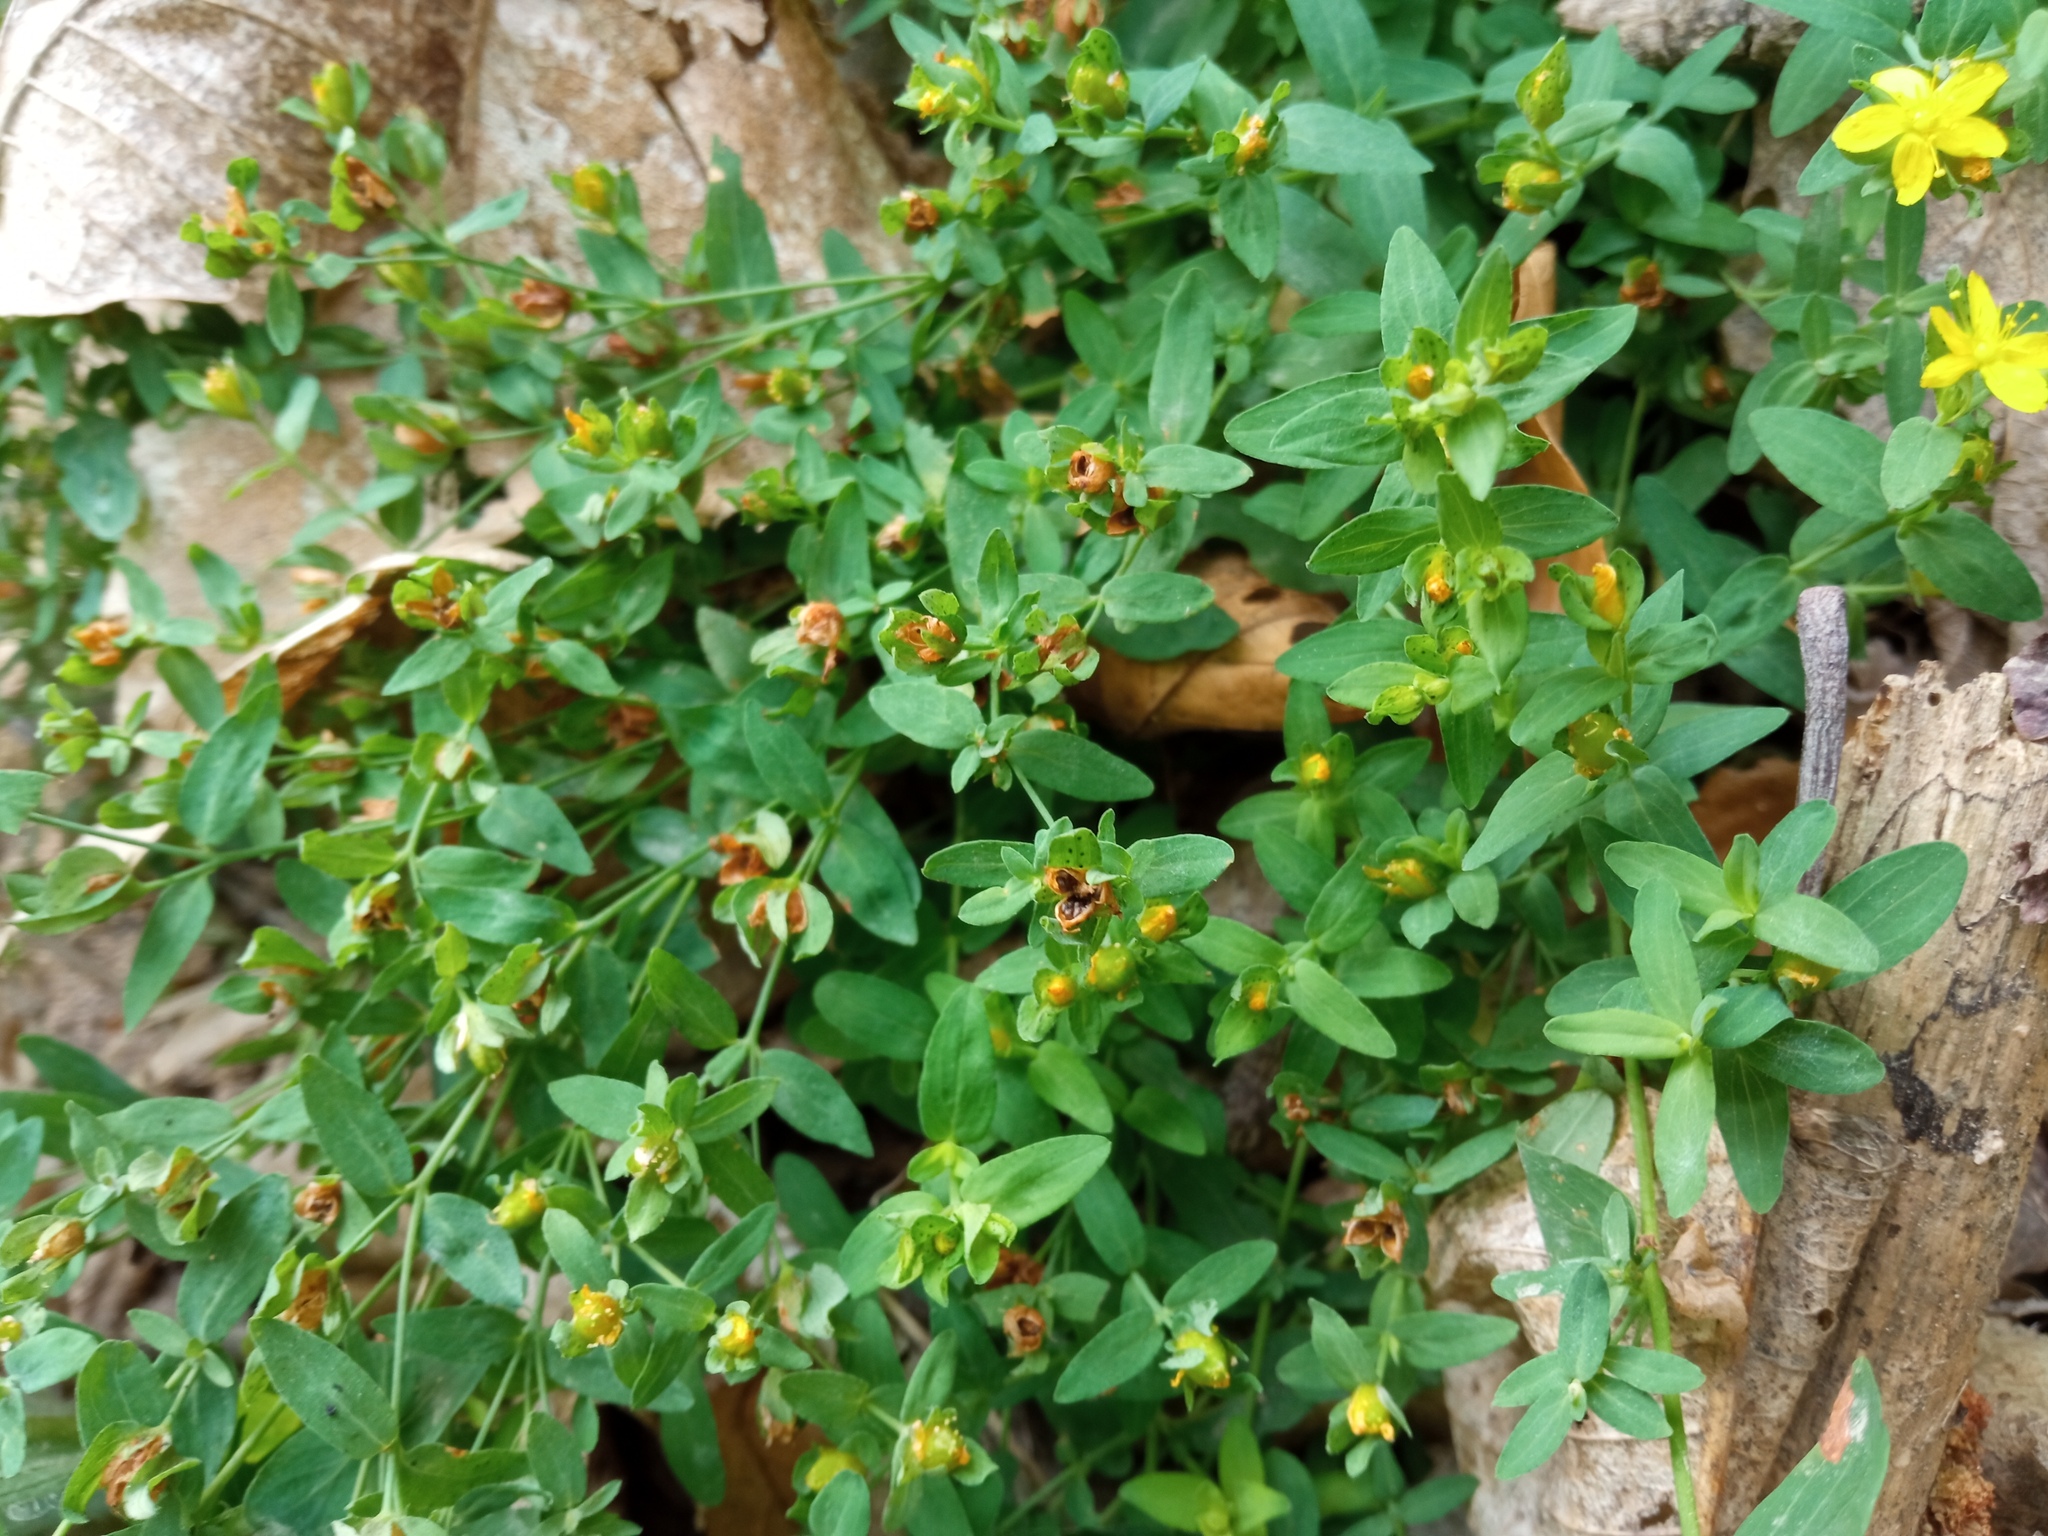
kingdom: Plantae
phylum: Tracheophyta
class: Magnoliopsida
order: Malpighiales
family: Hypericaceae
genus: Hypericum
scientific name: Hypericum humifusum
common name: Trailing st. john's-wort
